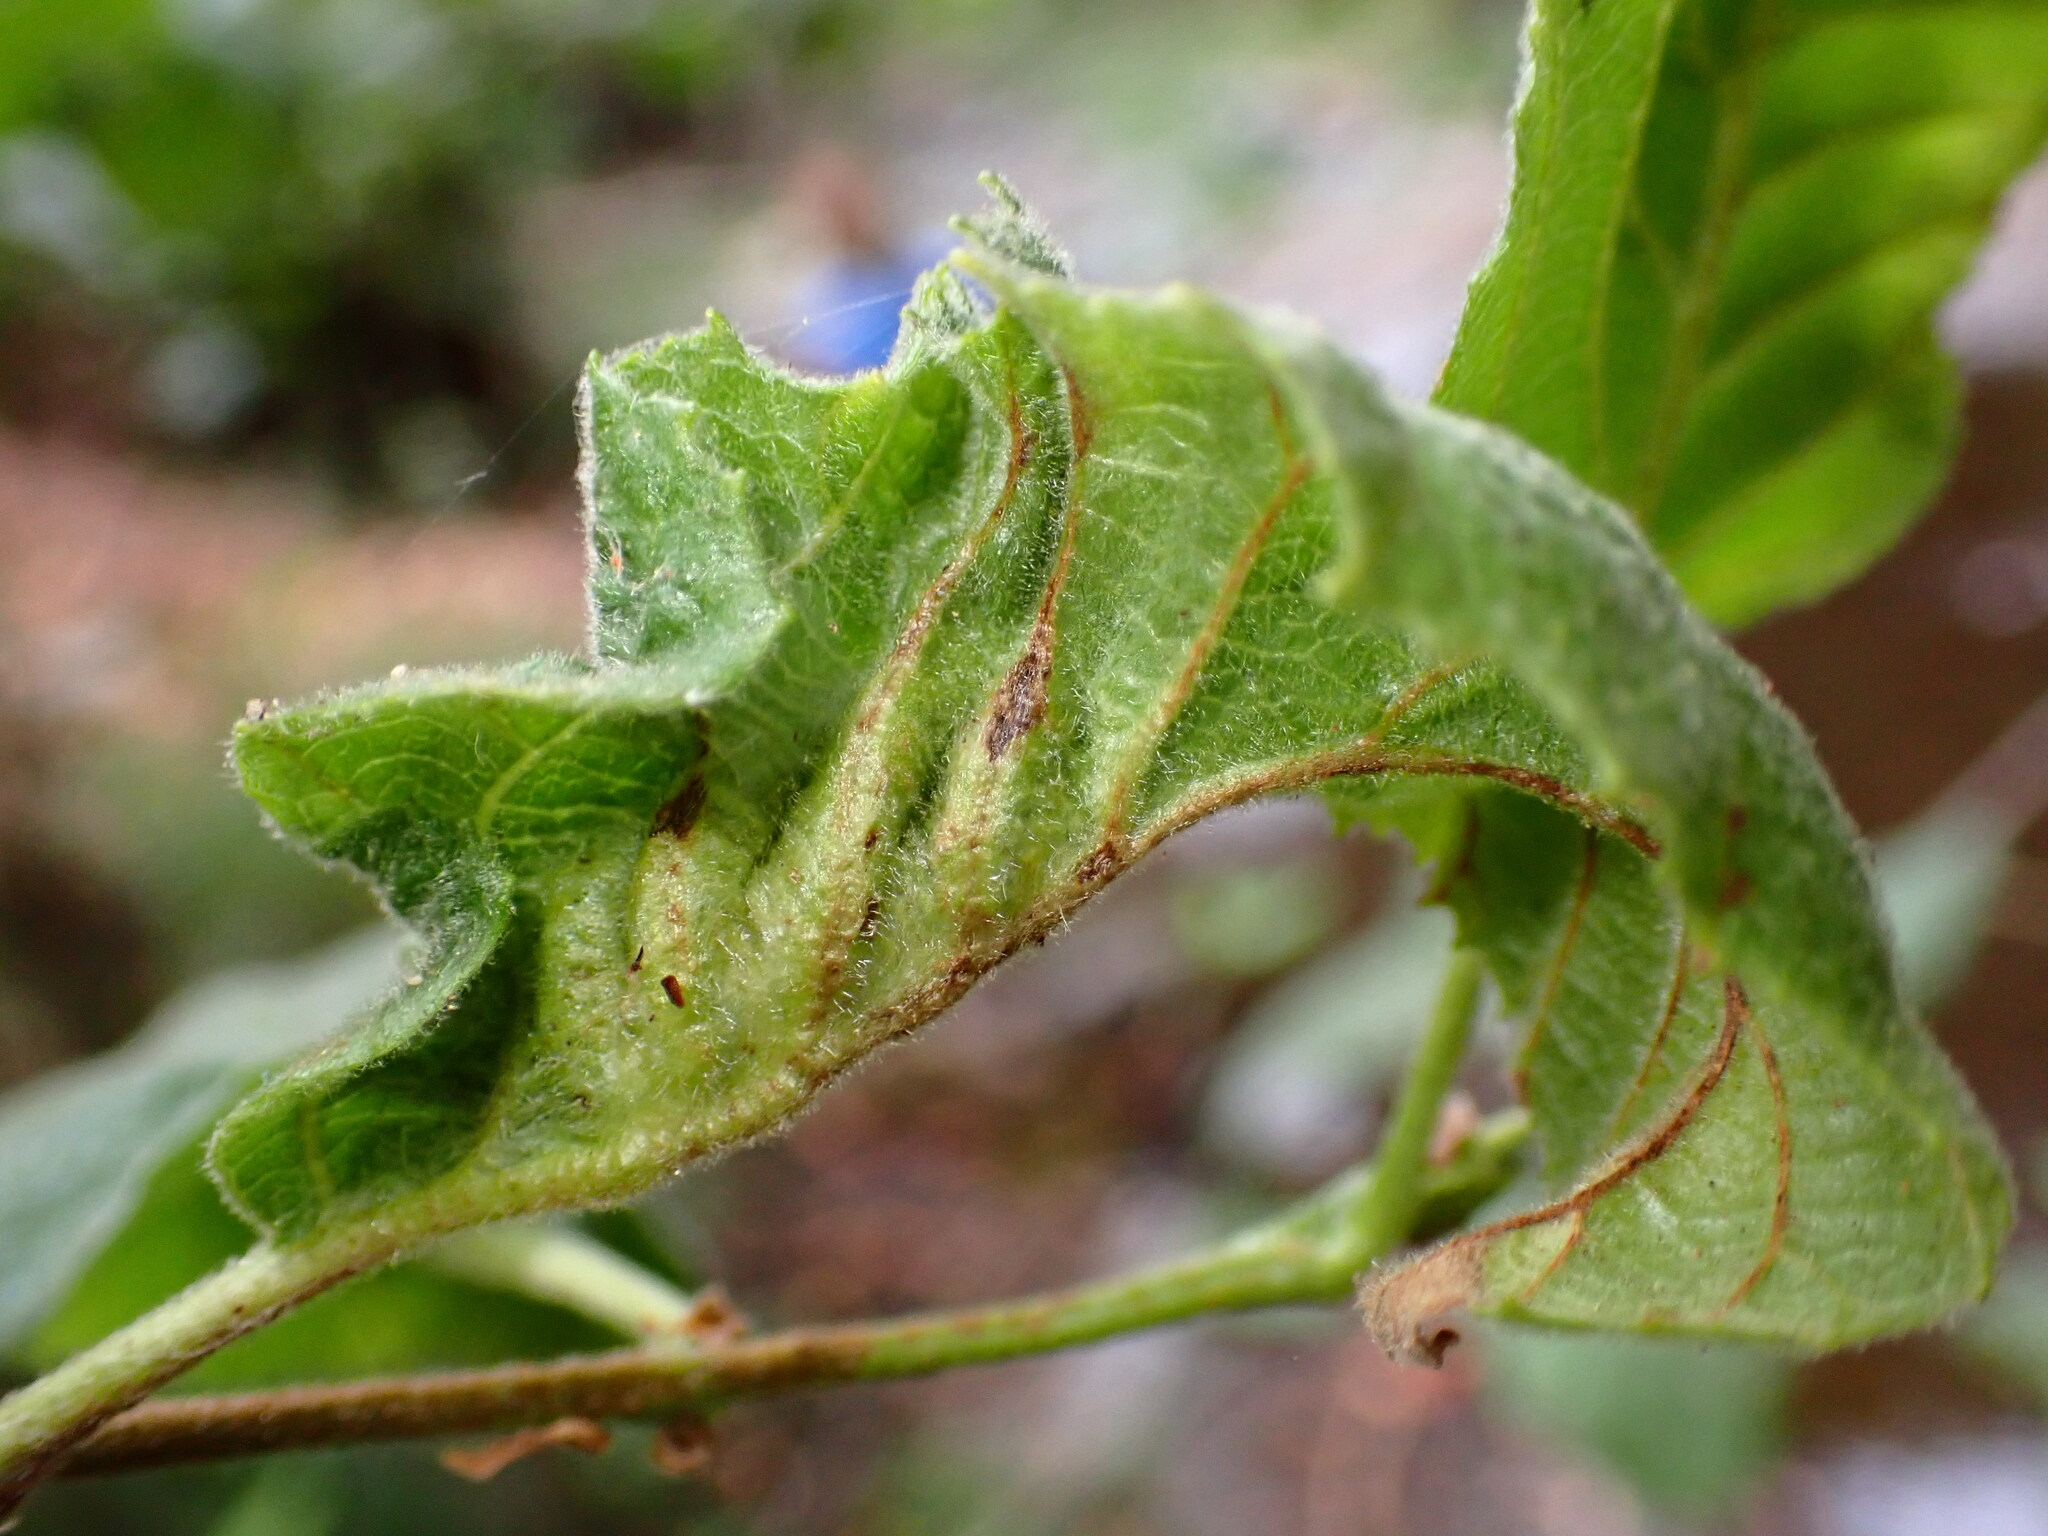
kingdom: Animalia
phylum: Arthropoda
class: Insecta
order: Diptera
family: Cecidomyiidae
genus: Dasineura
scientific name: Dasineura
